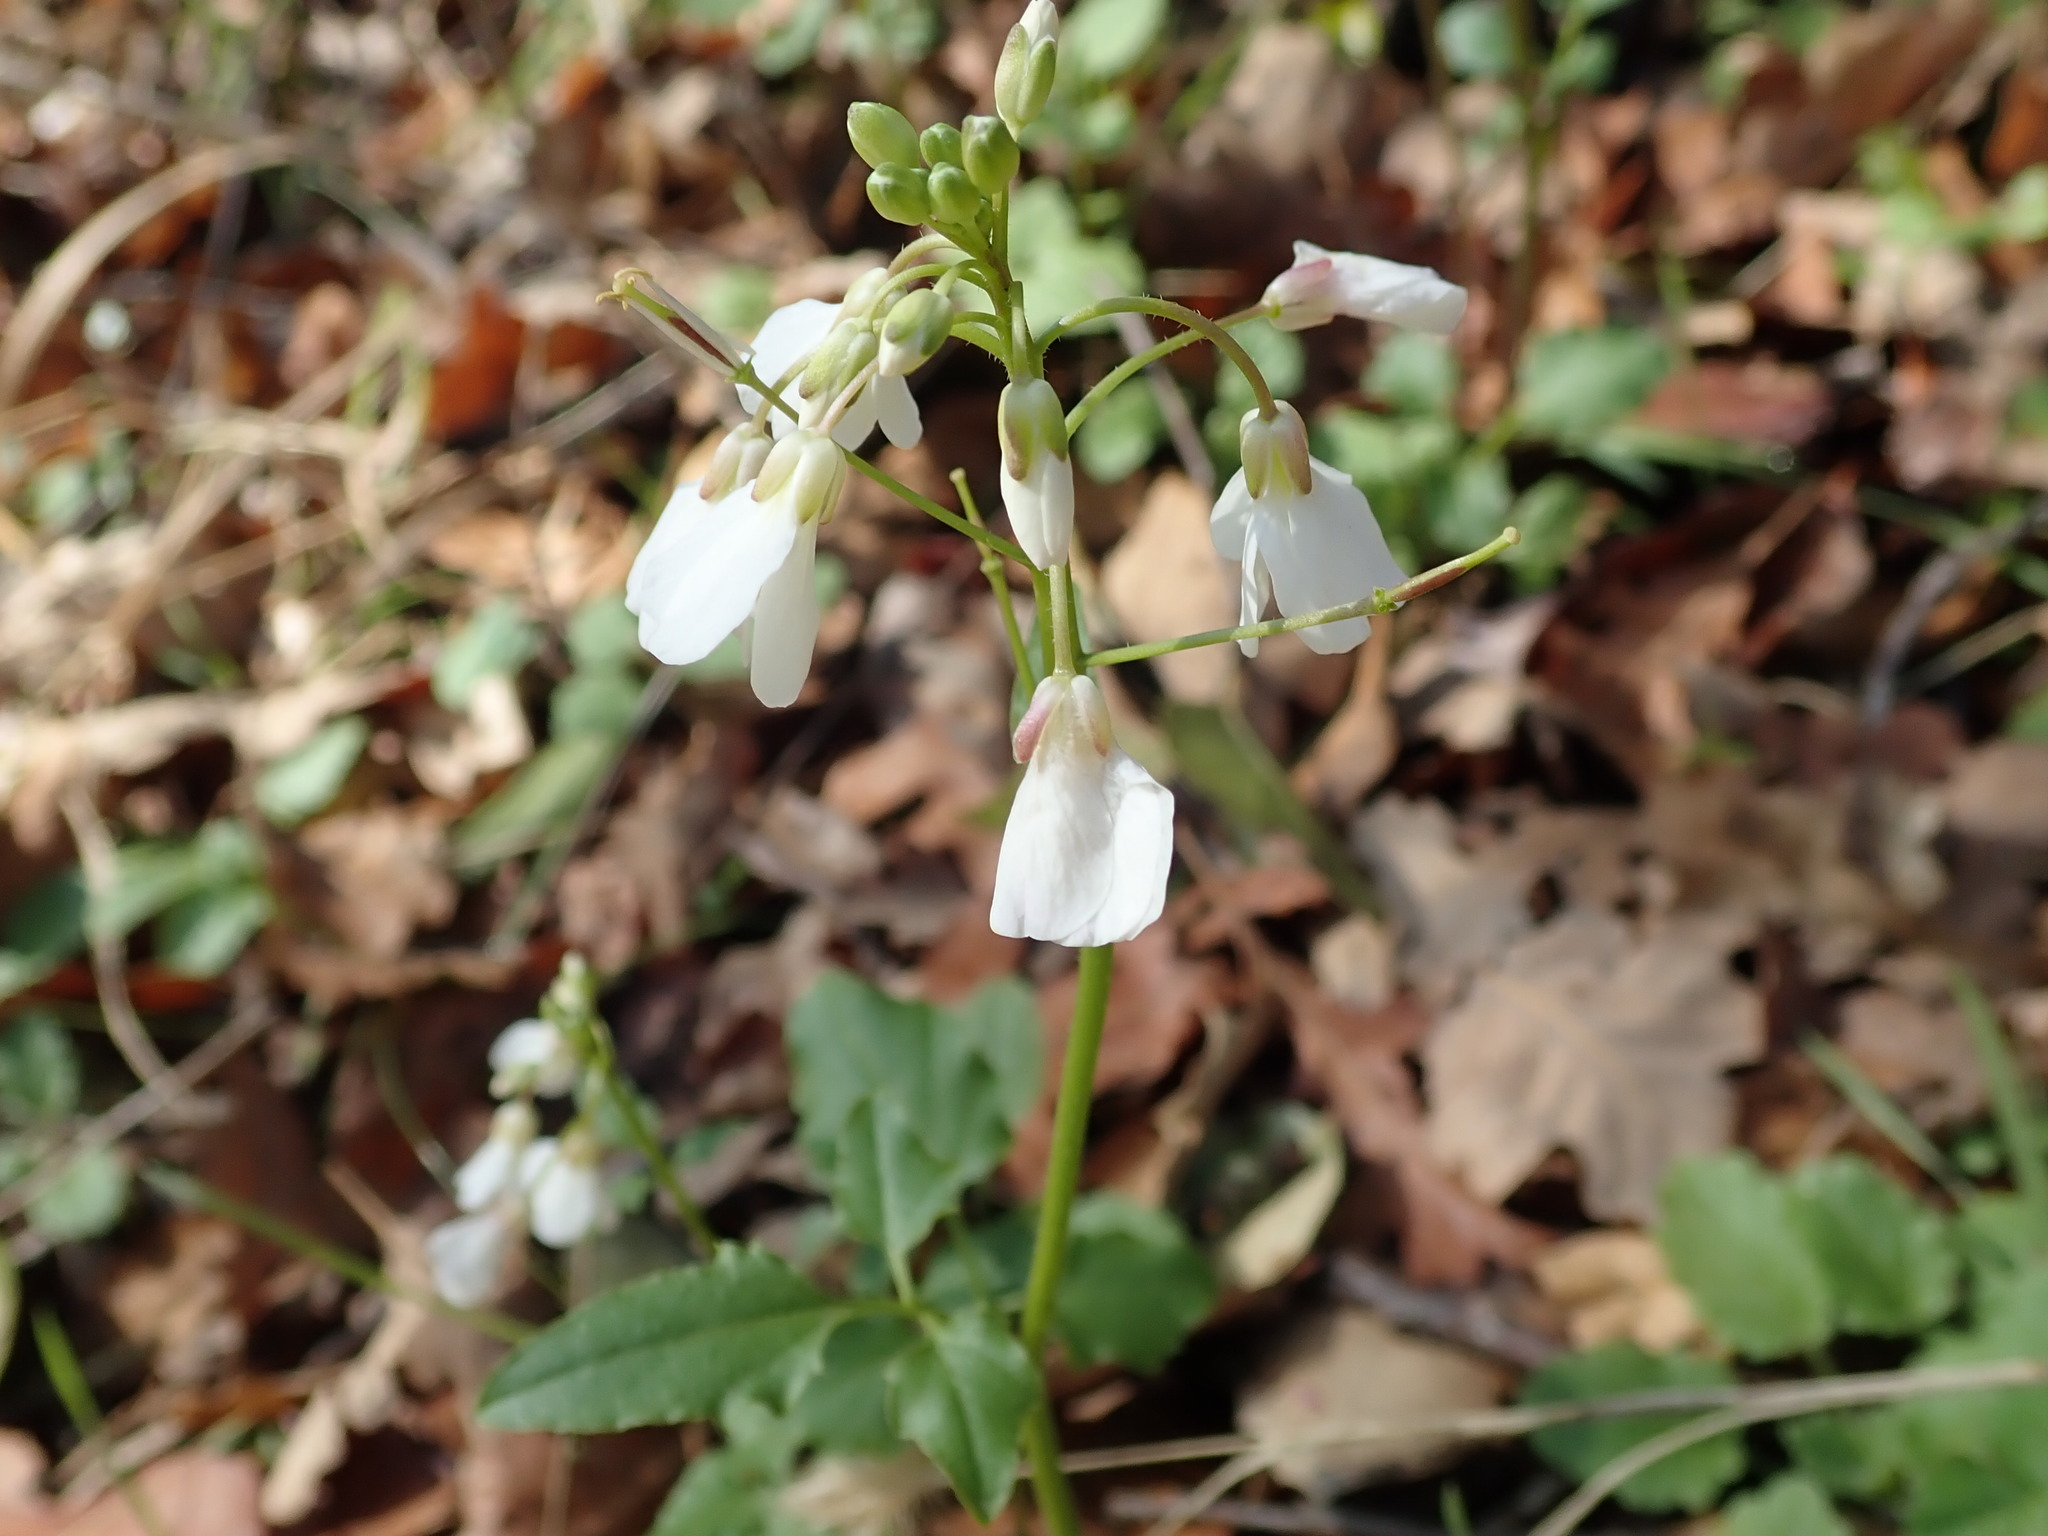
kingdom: Plantae
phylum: Tracheophyta
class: Magnoliopsida
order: Brassicales
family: Brassicaceae
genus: Cardamine
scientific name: Cardamine californica
